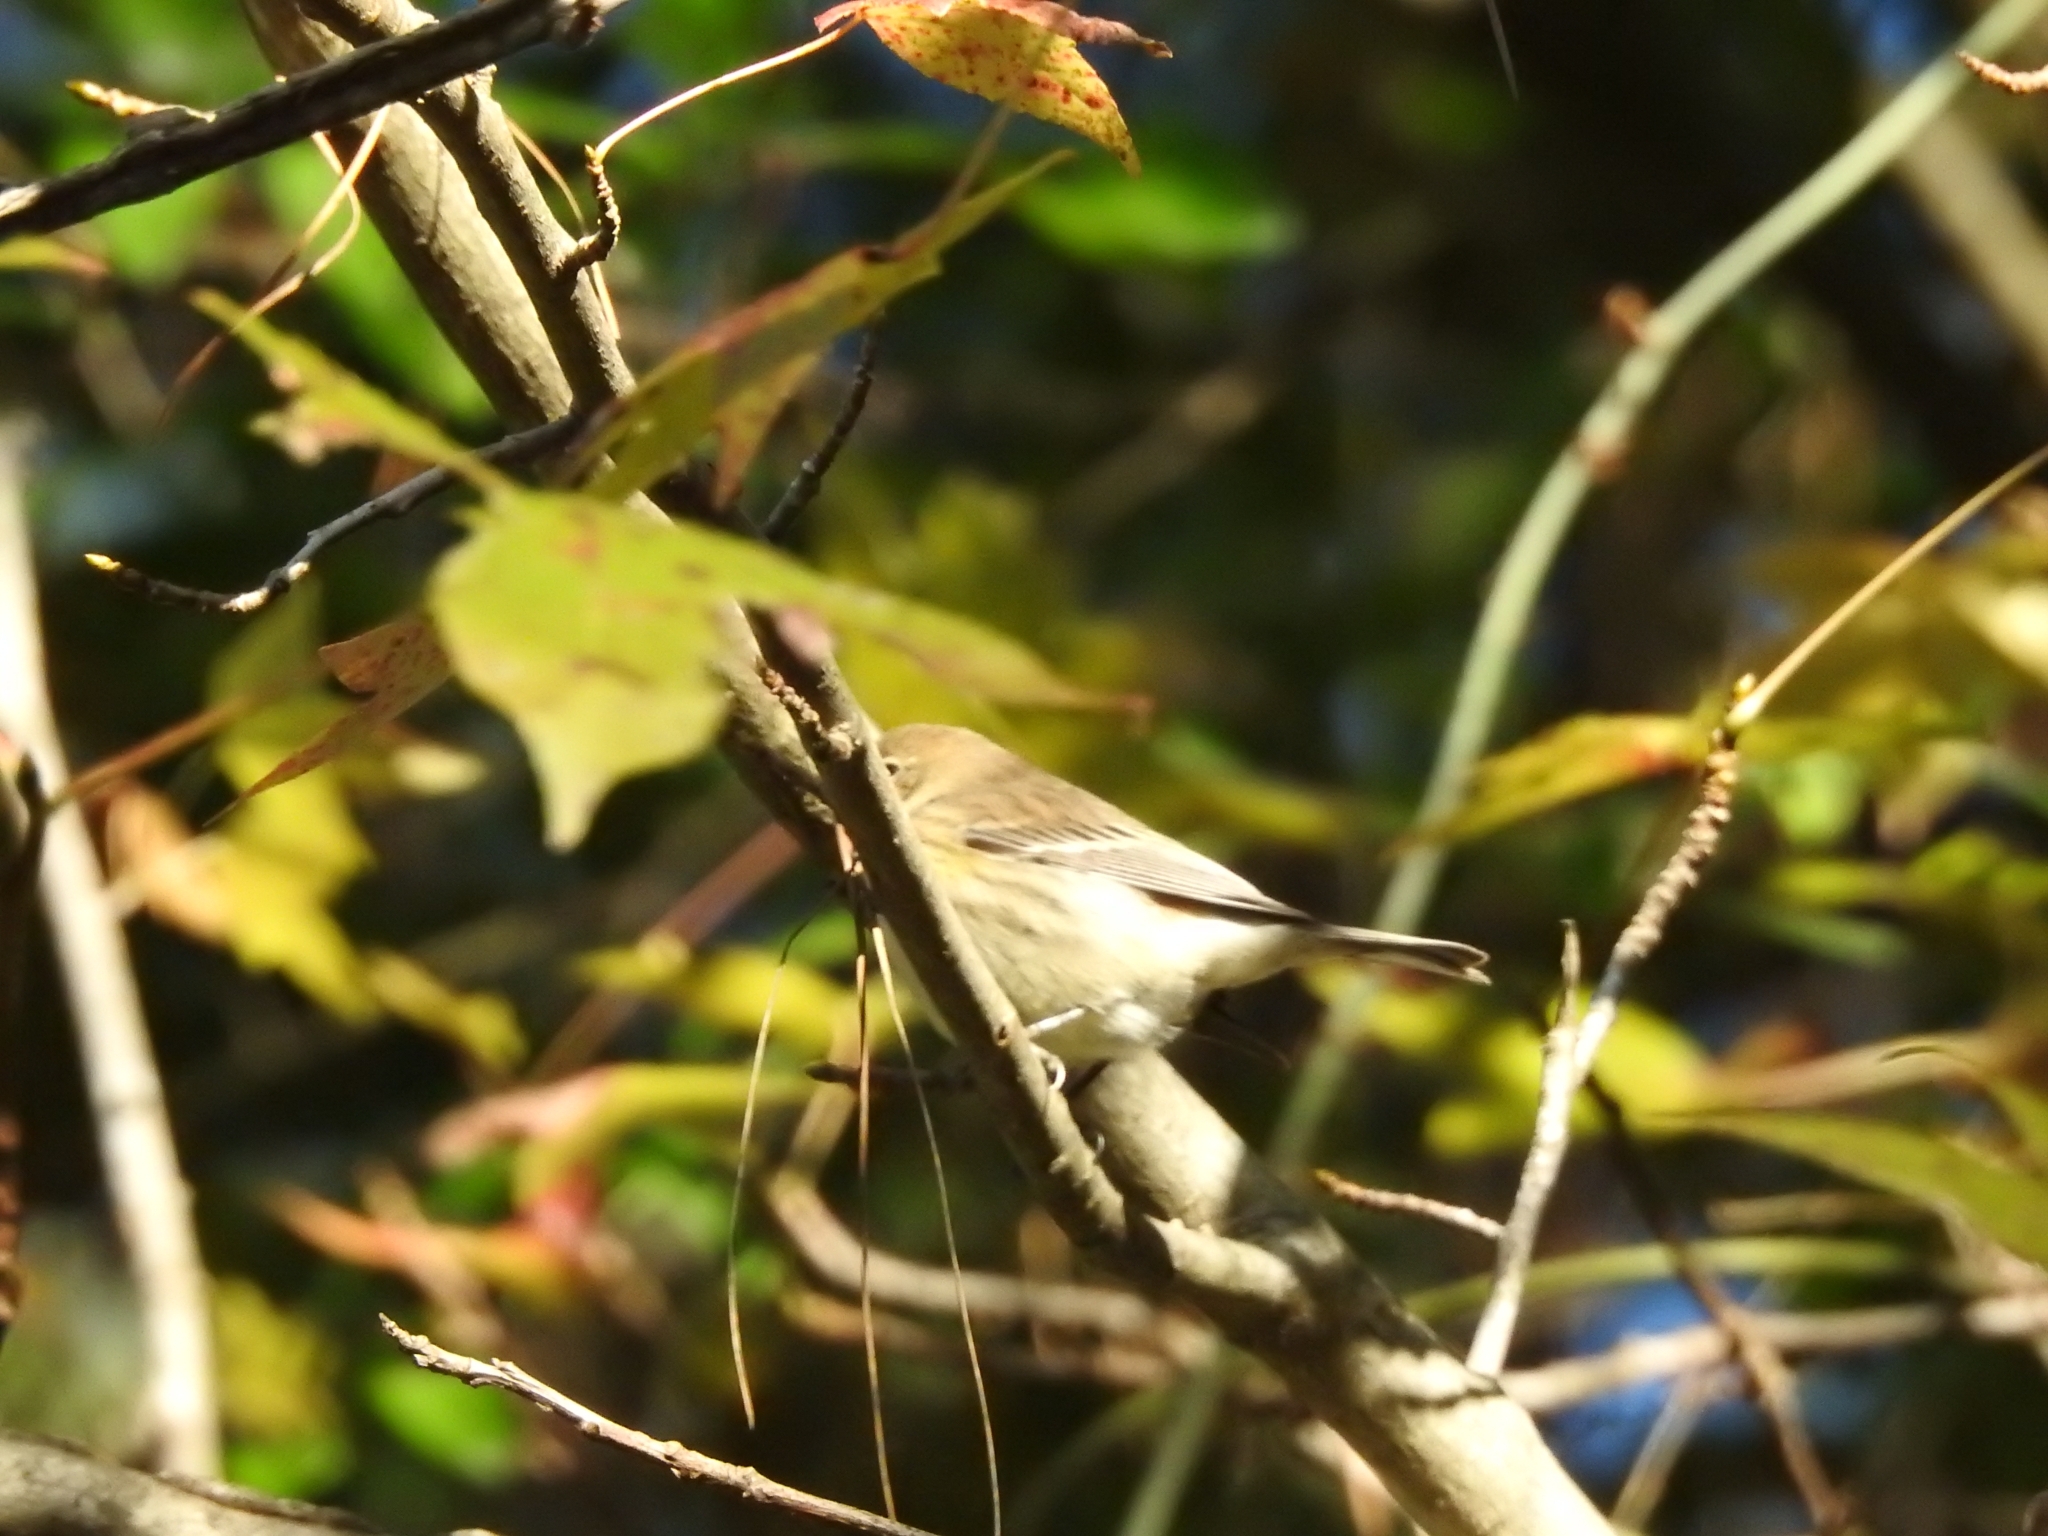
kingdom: Animalia
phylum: Chordata
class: Aves
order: Passeriformes
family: Parulidae
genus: Setophaga
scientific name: Setophaga coronata
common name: Myrtle warbler
